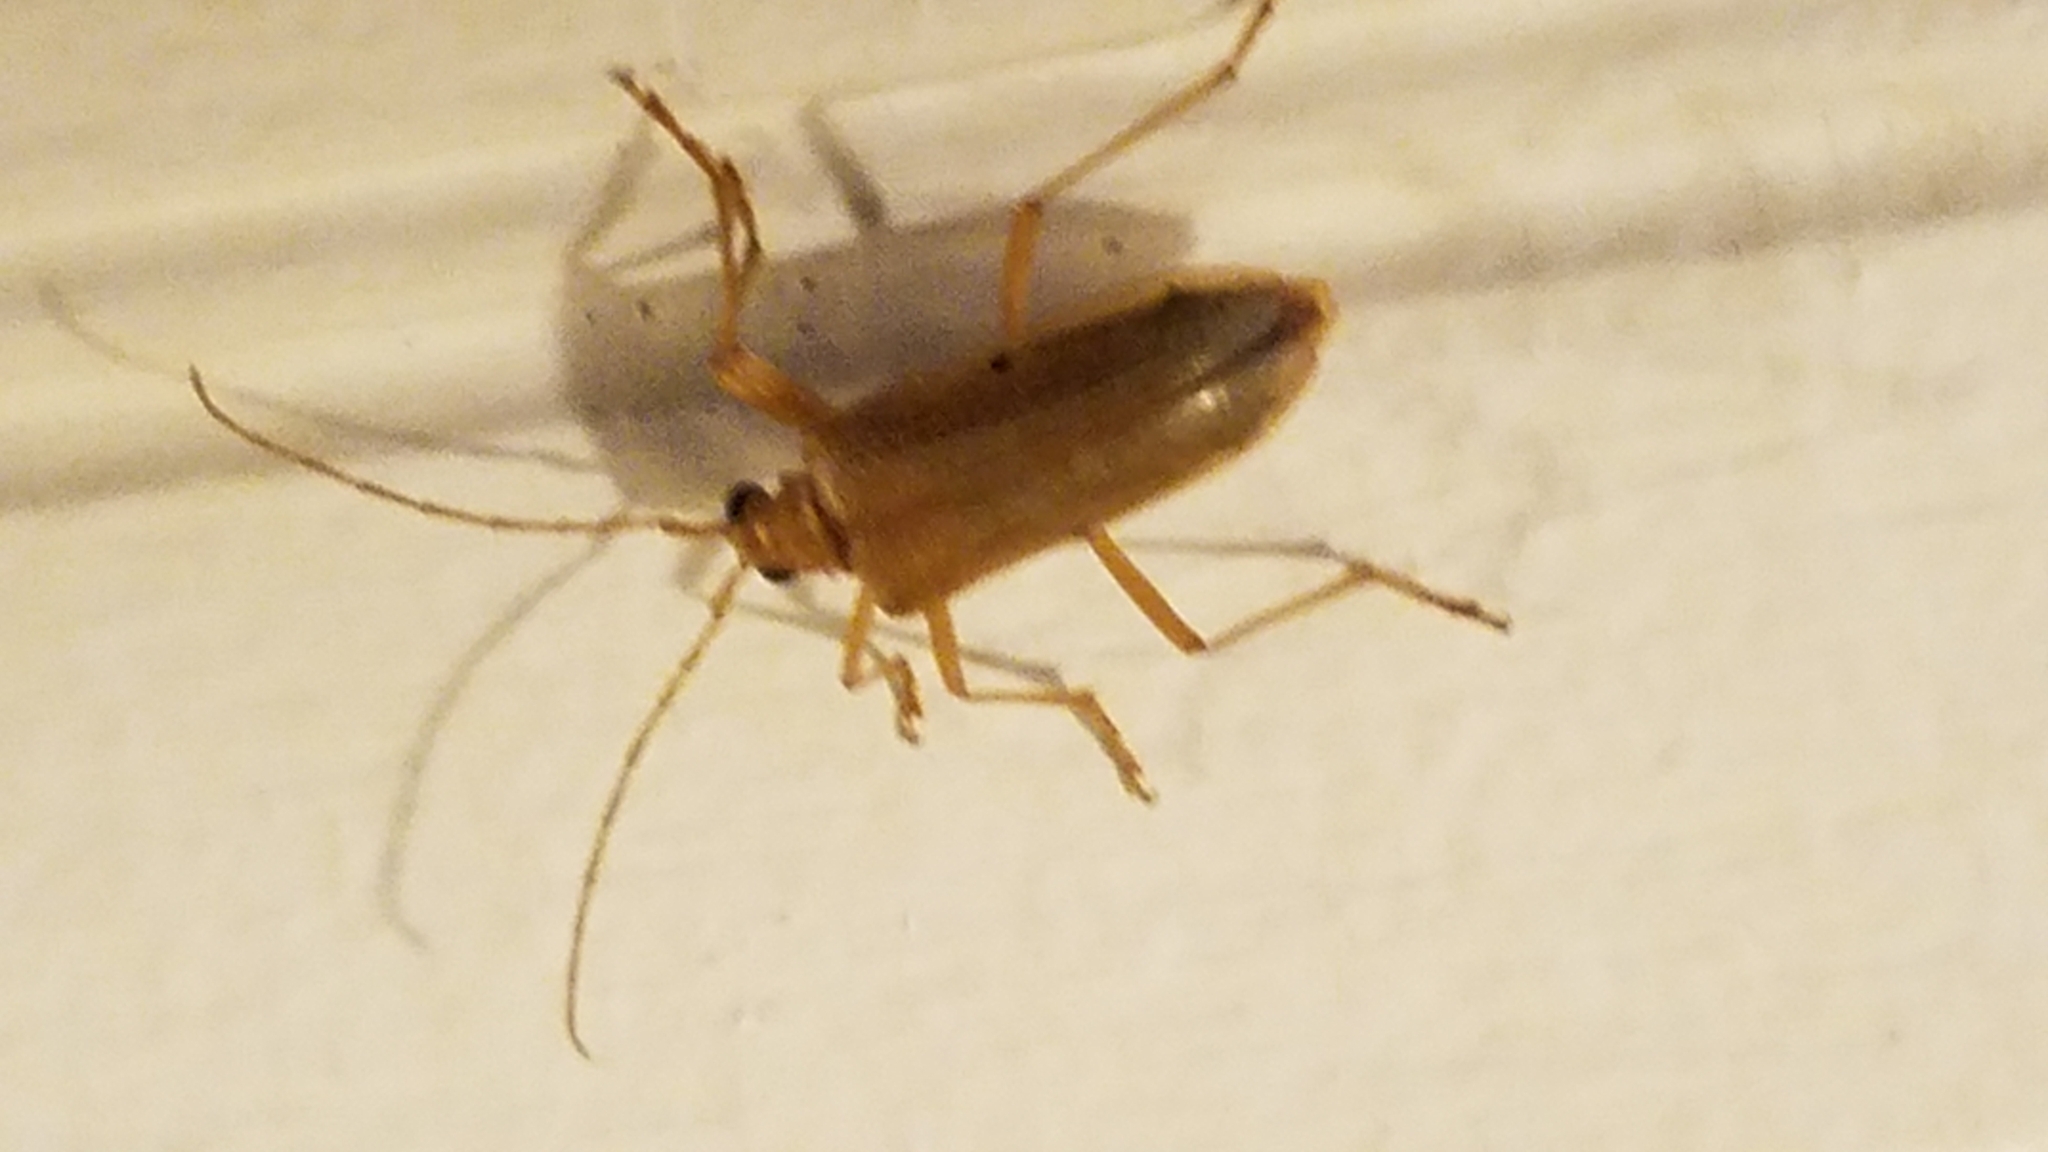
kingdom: Animalia
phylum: Arthropoda
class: Insecta
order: Coleoptera
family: Cerambycidae
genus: Centrodera
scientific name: Centrodera spurca
